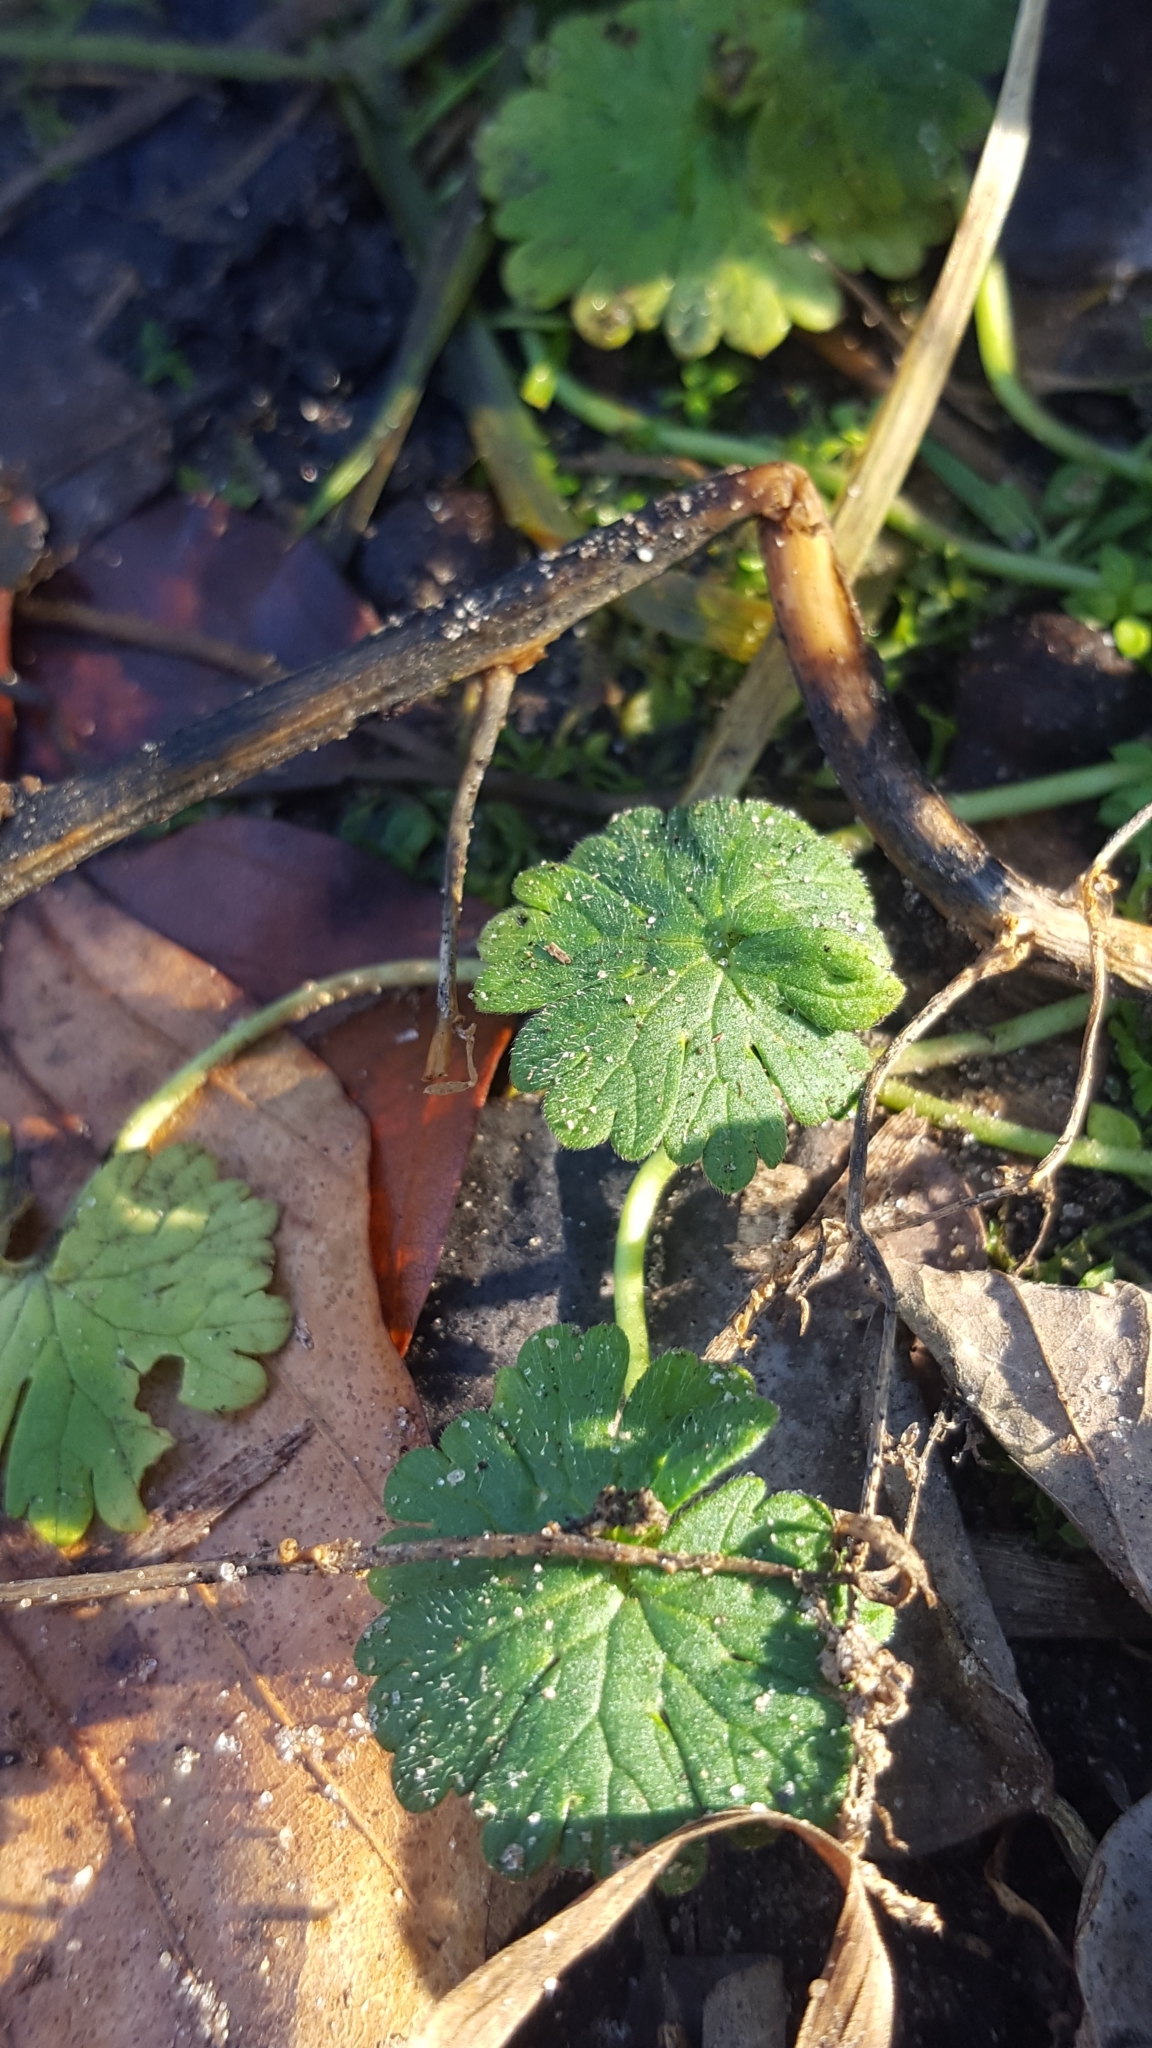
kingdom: Plantae
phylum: Tracheophyta
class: Magnoliopsida
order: Geraniales
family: Geraniaceae
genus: Geranium
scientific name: Geranium molle
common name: Dove's-foot crane's-bill
